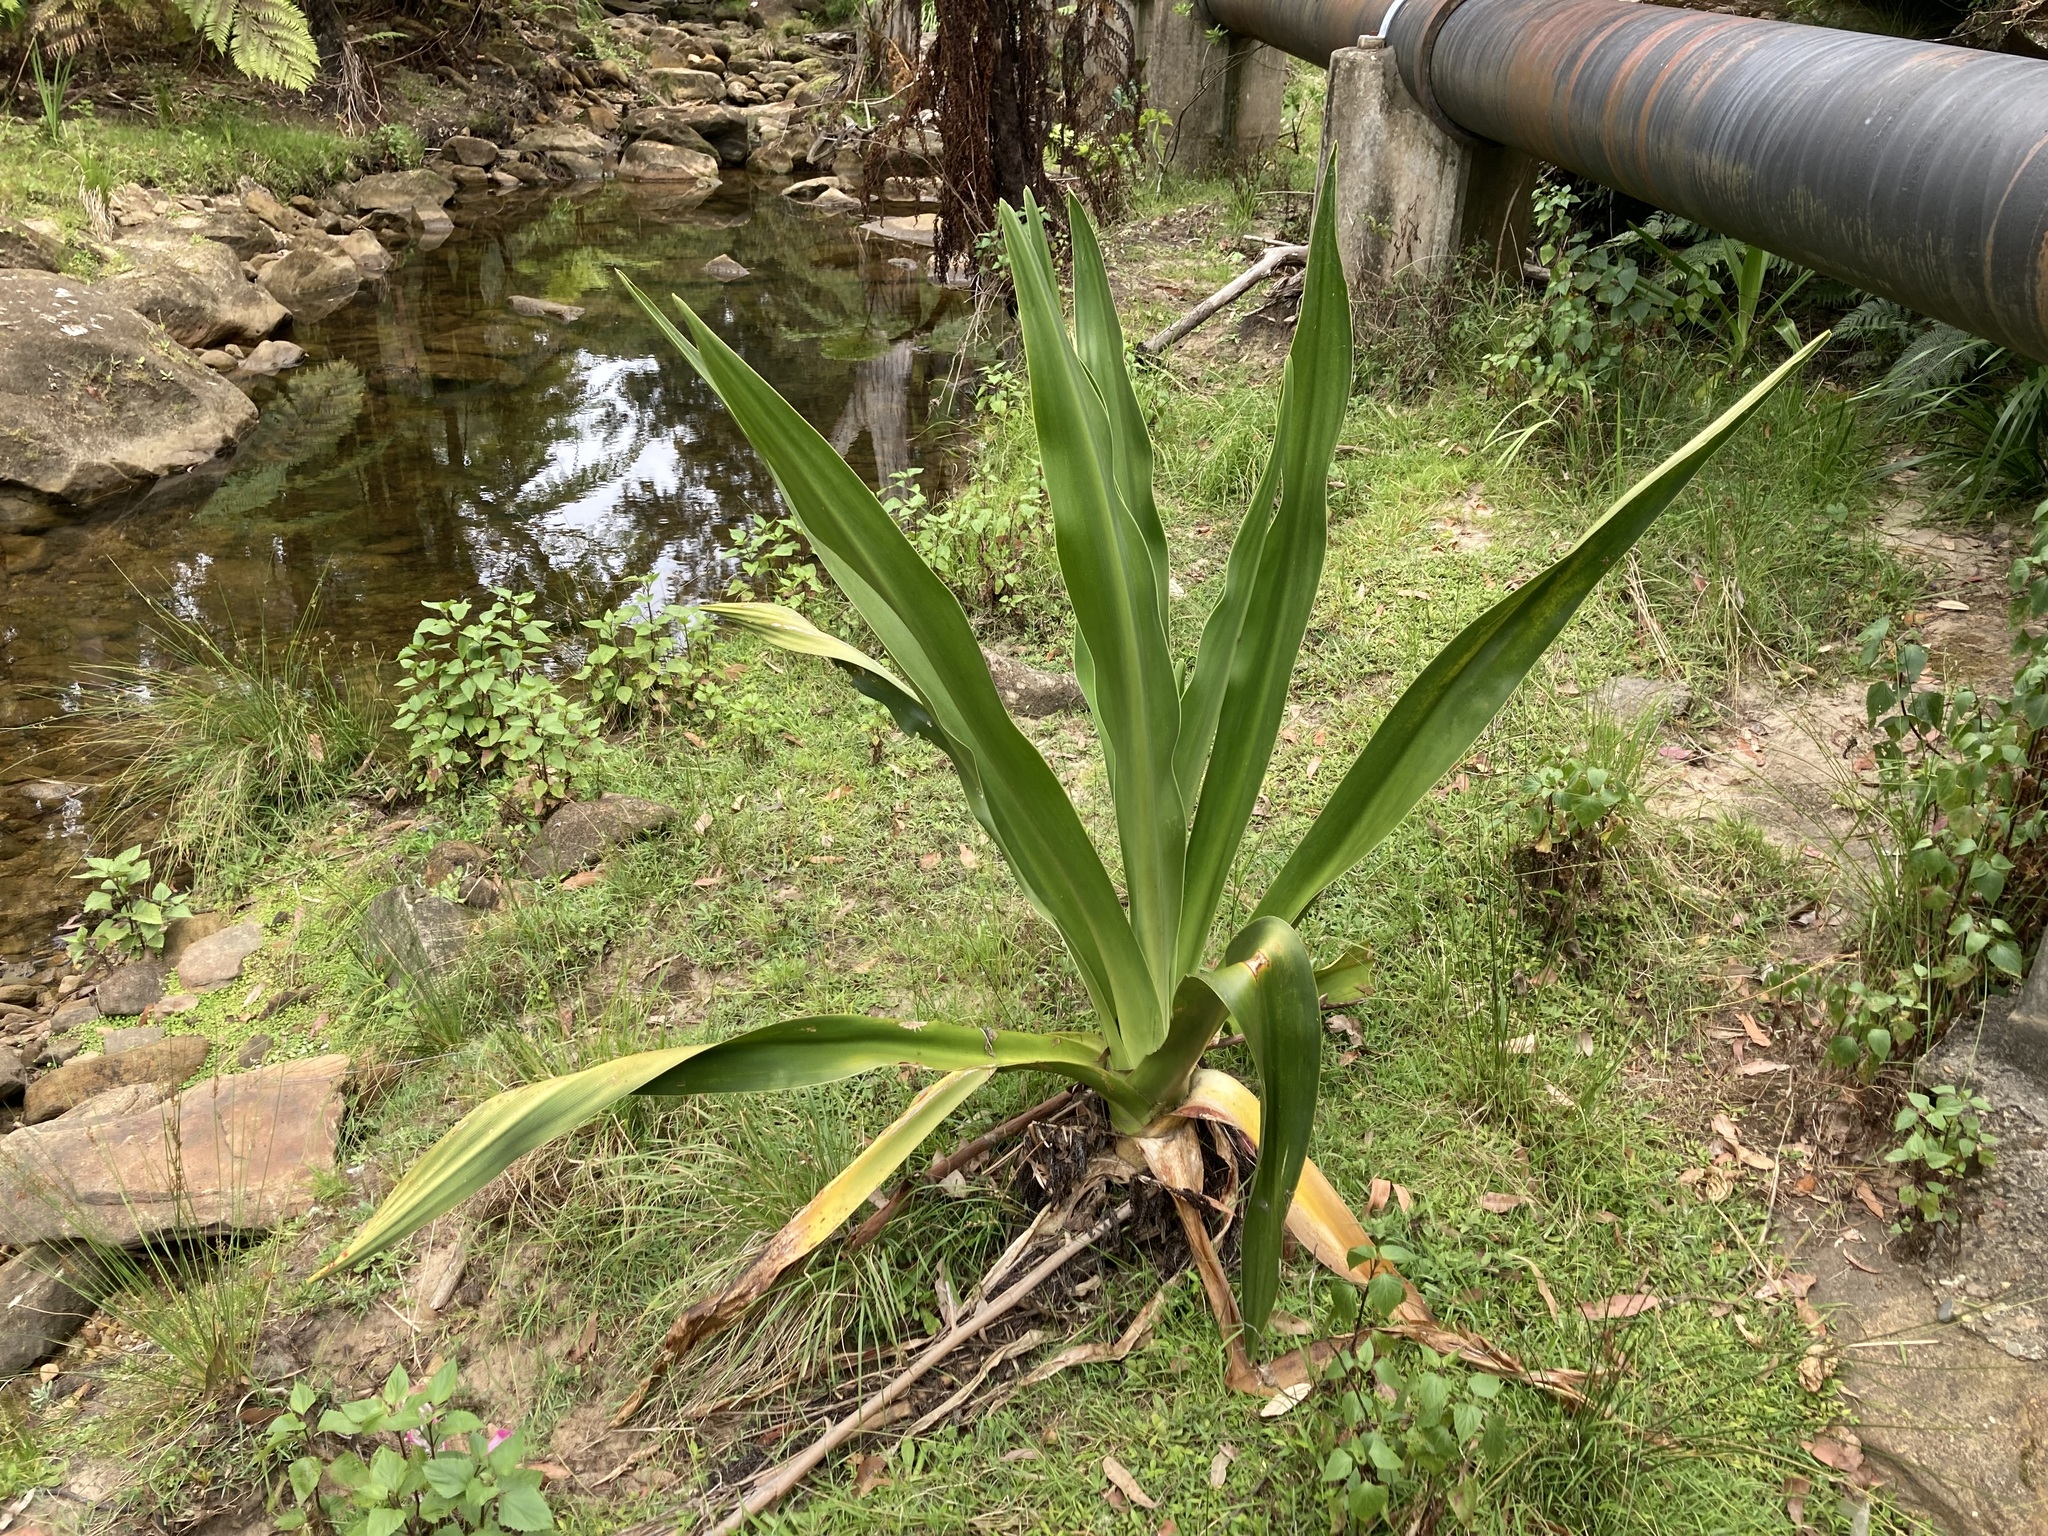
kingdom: Plantae
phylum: Tracheophyta
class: Liliopsida
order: Asparagales
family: Amaryllidaceae
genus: Crinum
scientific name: Crinum pedunculatum
